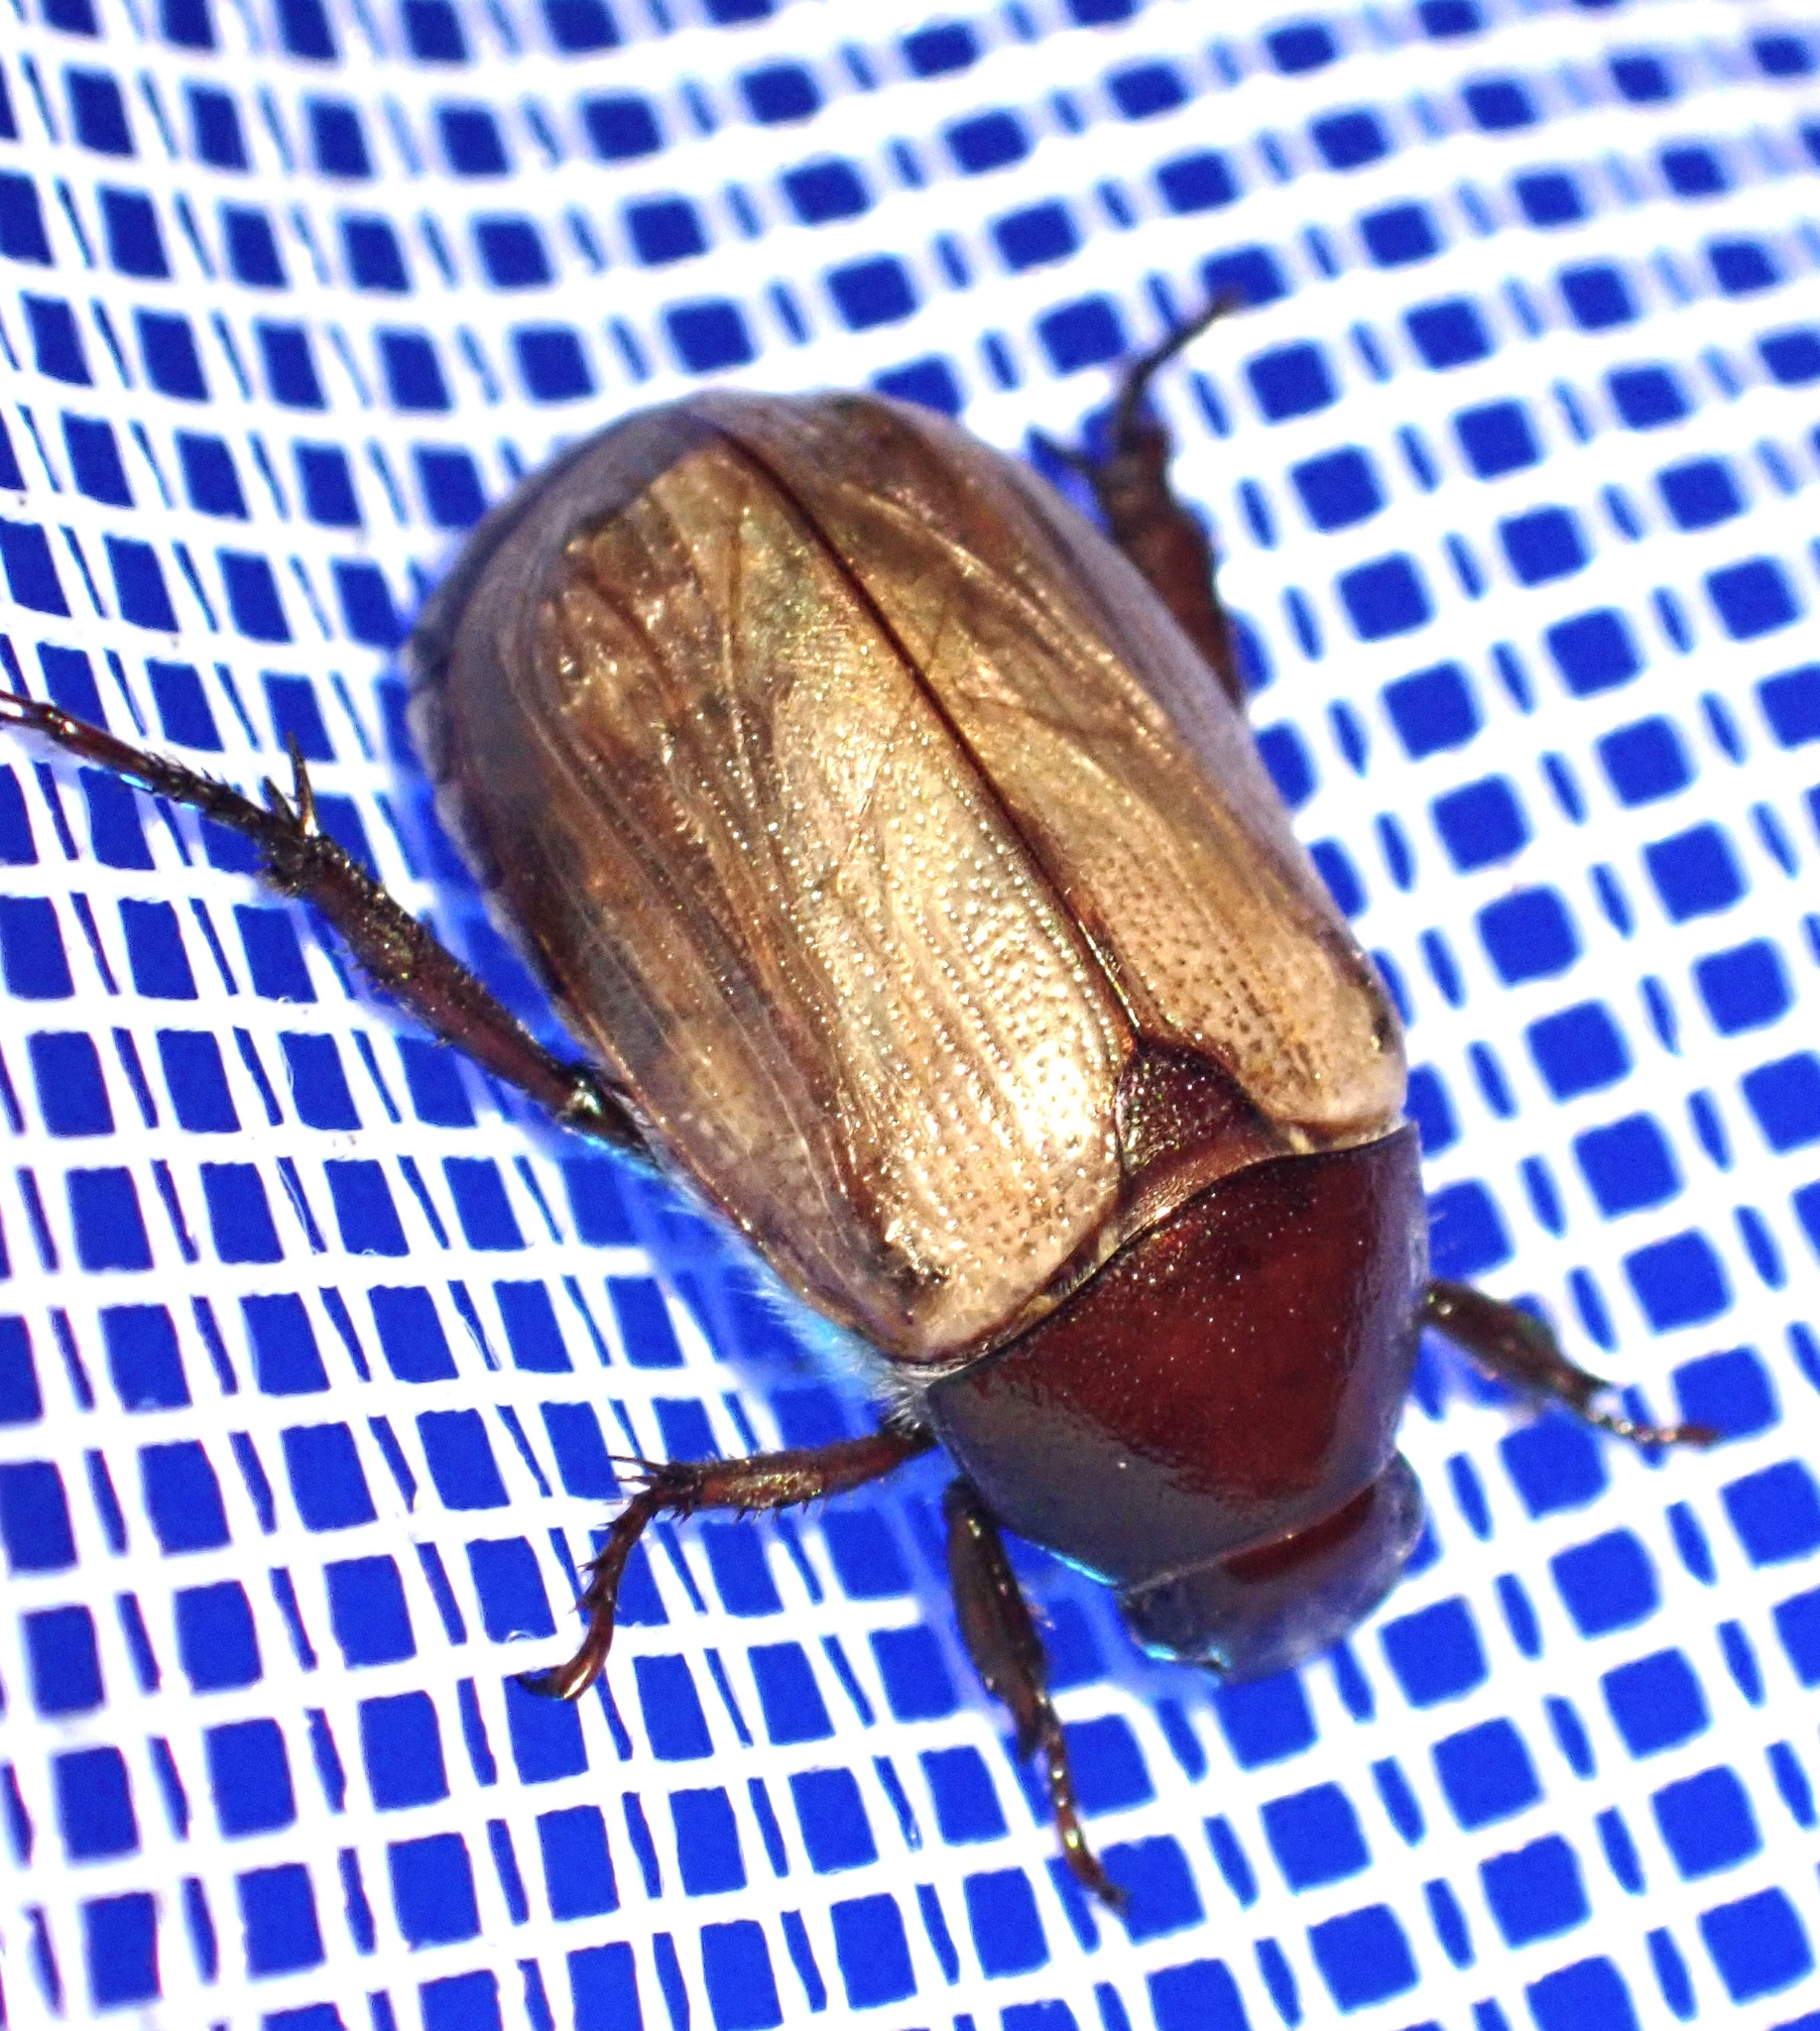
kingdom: Animalia
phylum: Arthropoda
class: Insecta
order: Coleoptera
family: Scarabaeidae
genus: Anomala
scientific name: Anomala brachycaula
